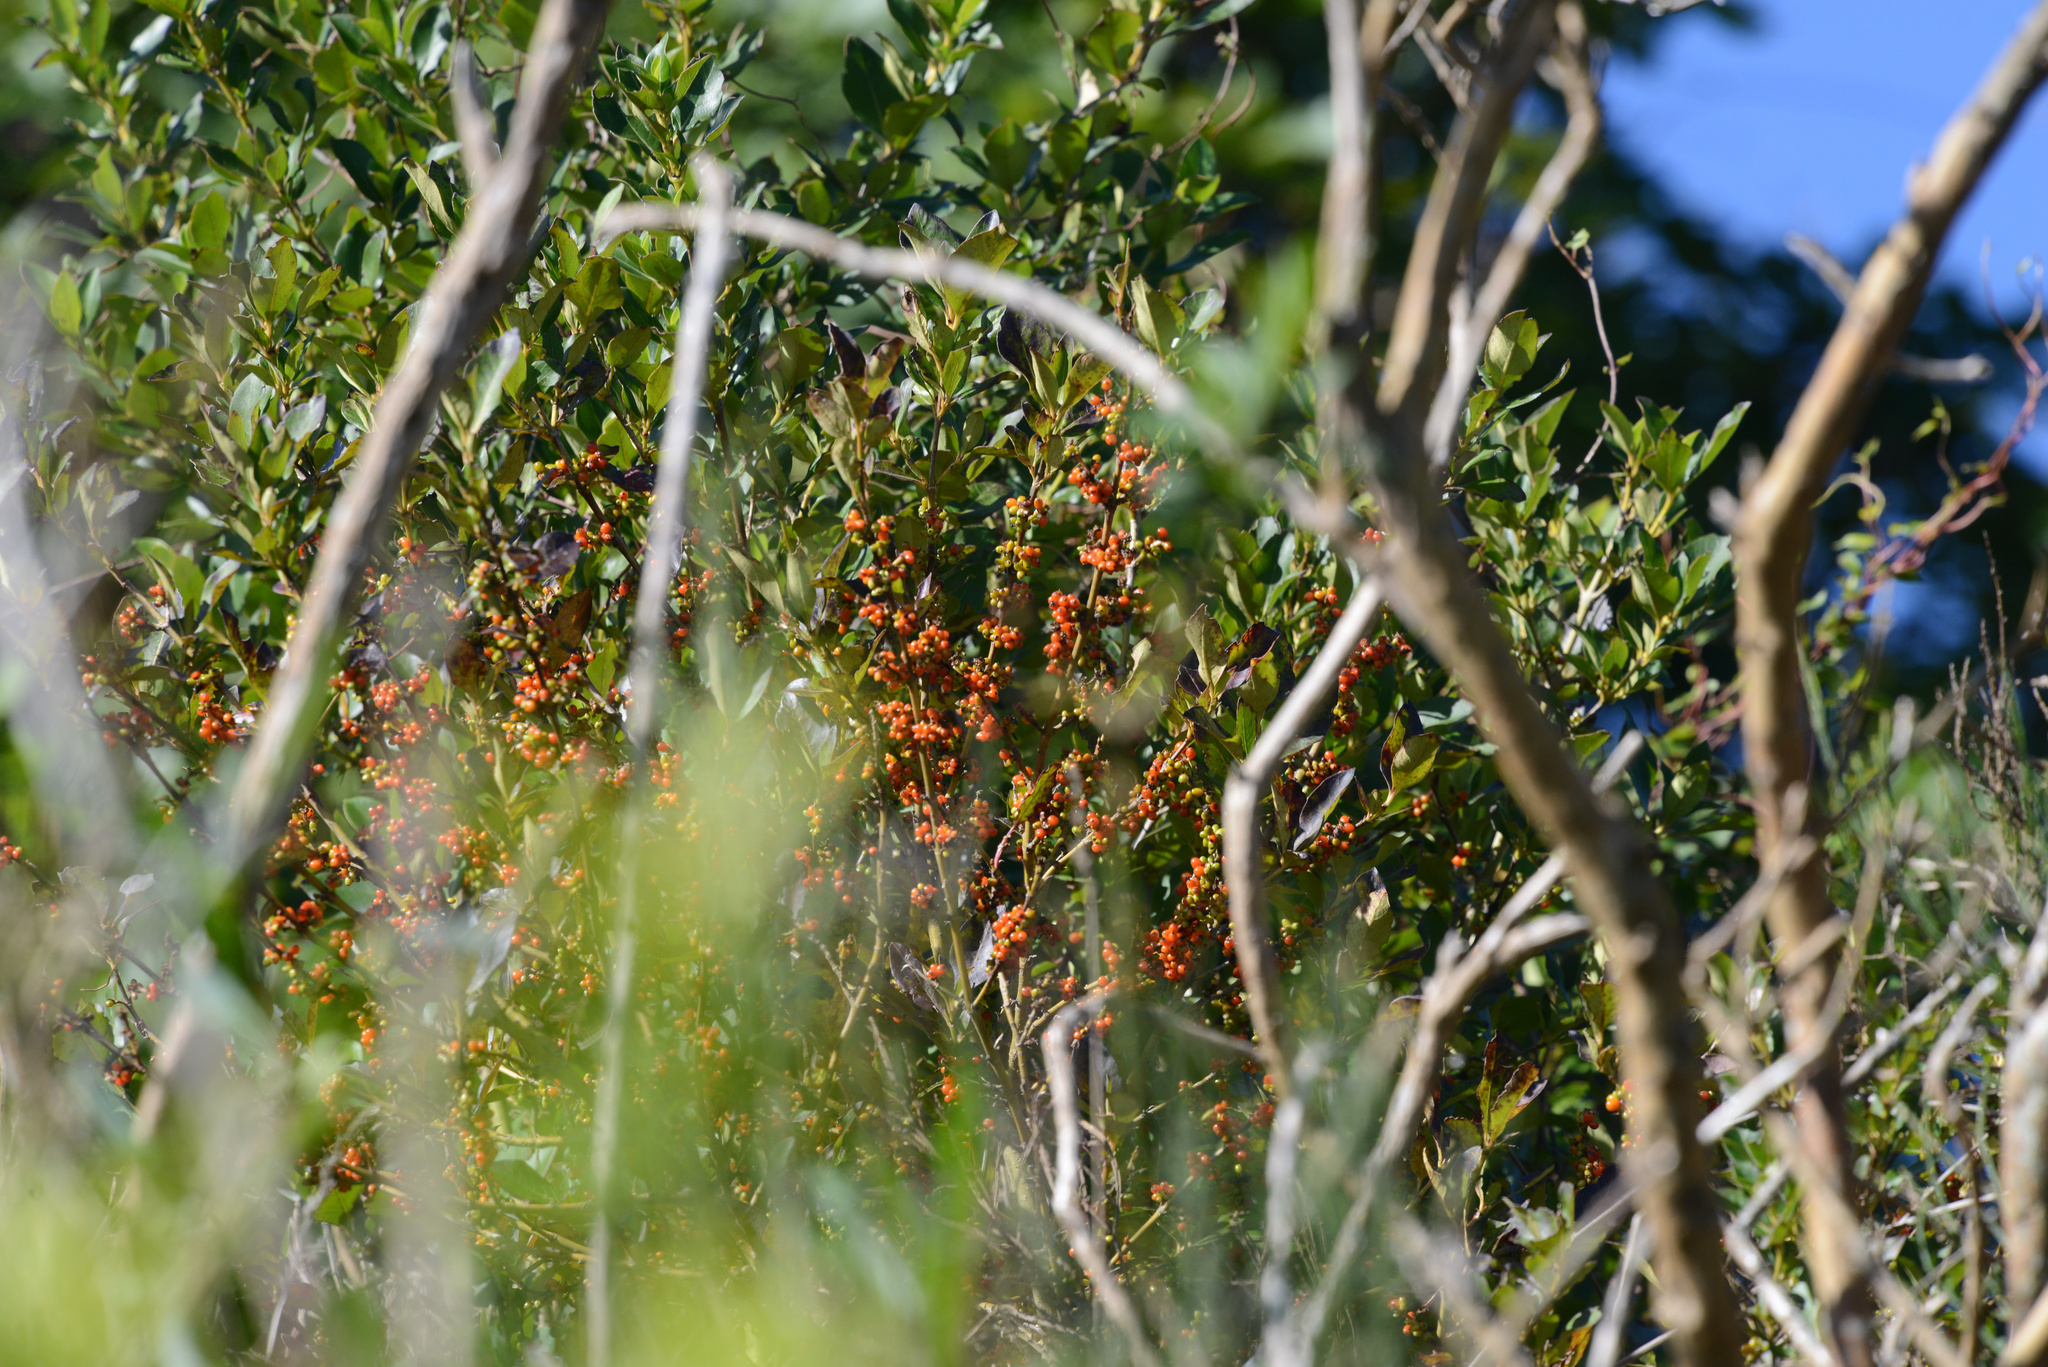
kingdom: Plantae
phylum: Tracheophyta
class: Magnoliopsida
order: Gentianales
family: Rubiaceae
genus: Coprosma
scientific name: Coprosma robusta
